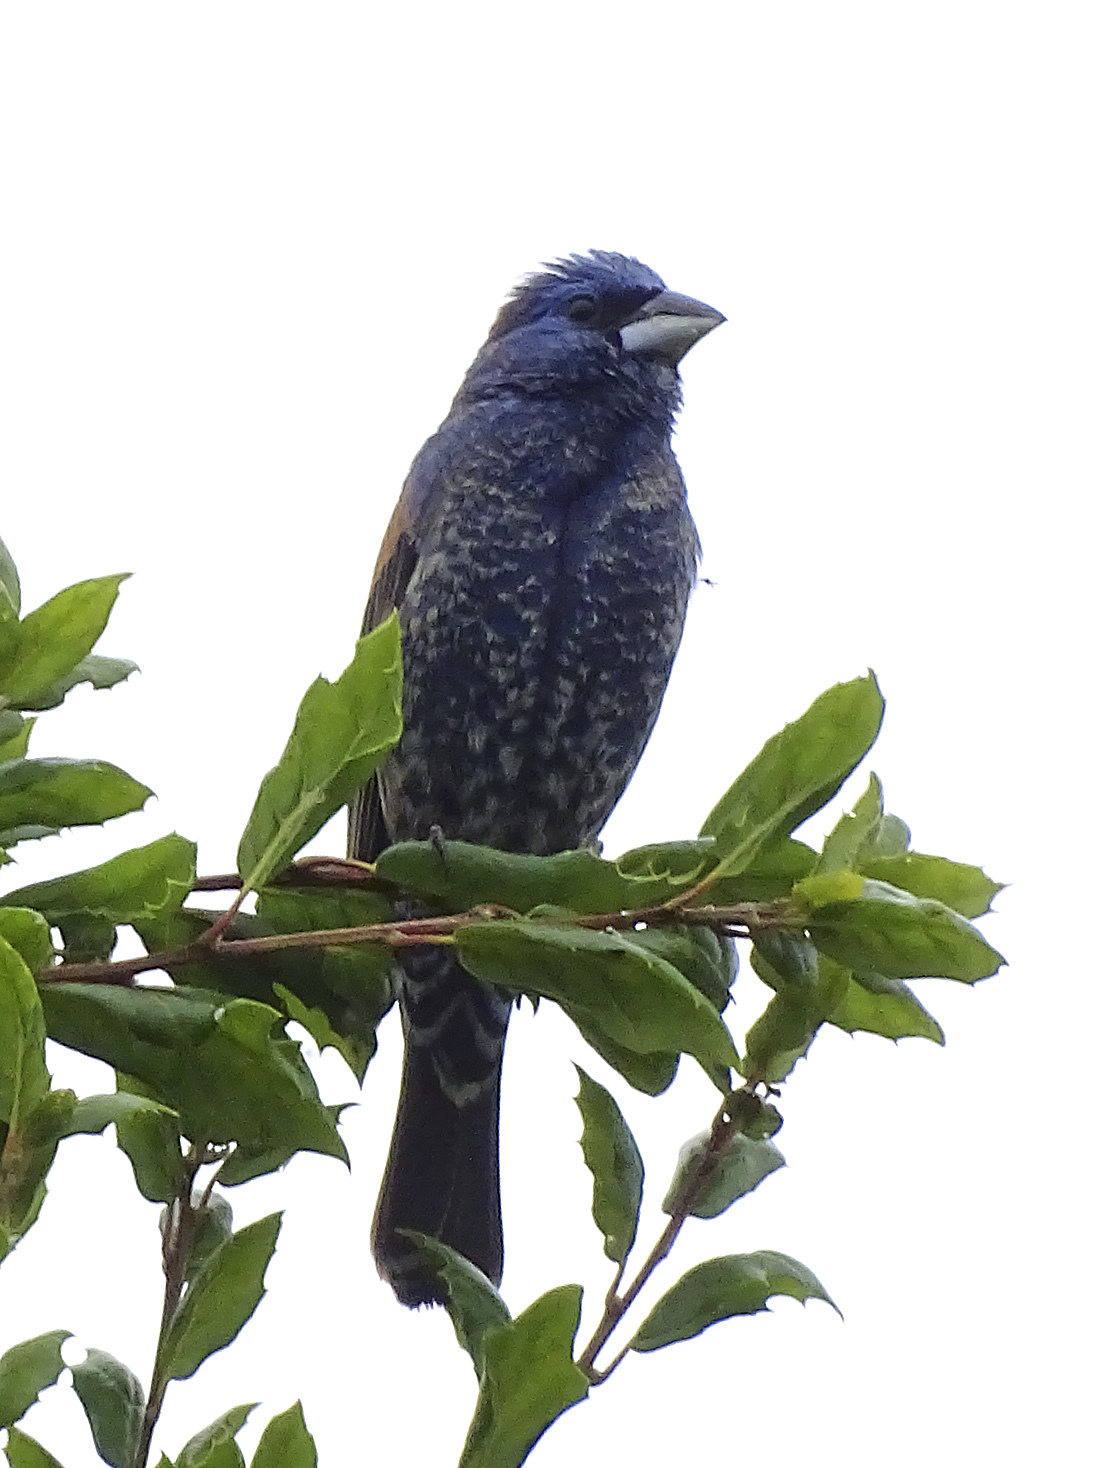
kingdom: Animalia
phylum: Chordata
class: Aves
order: Passeriformes
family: Cardinalidae
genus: Passerina
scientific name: Passerina caerulea
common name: Blue grosbeak
